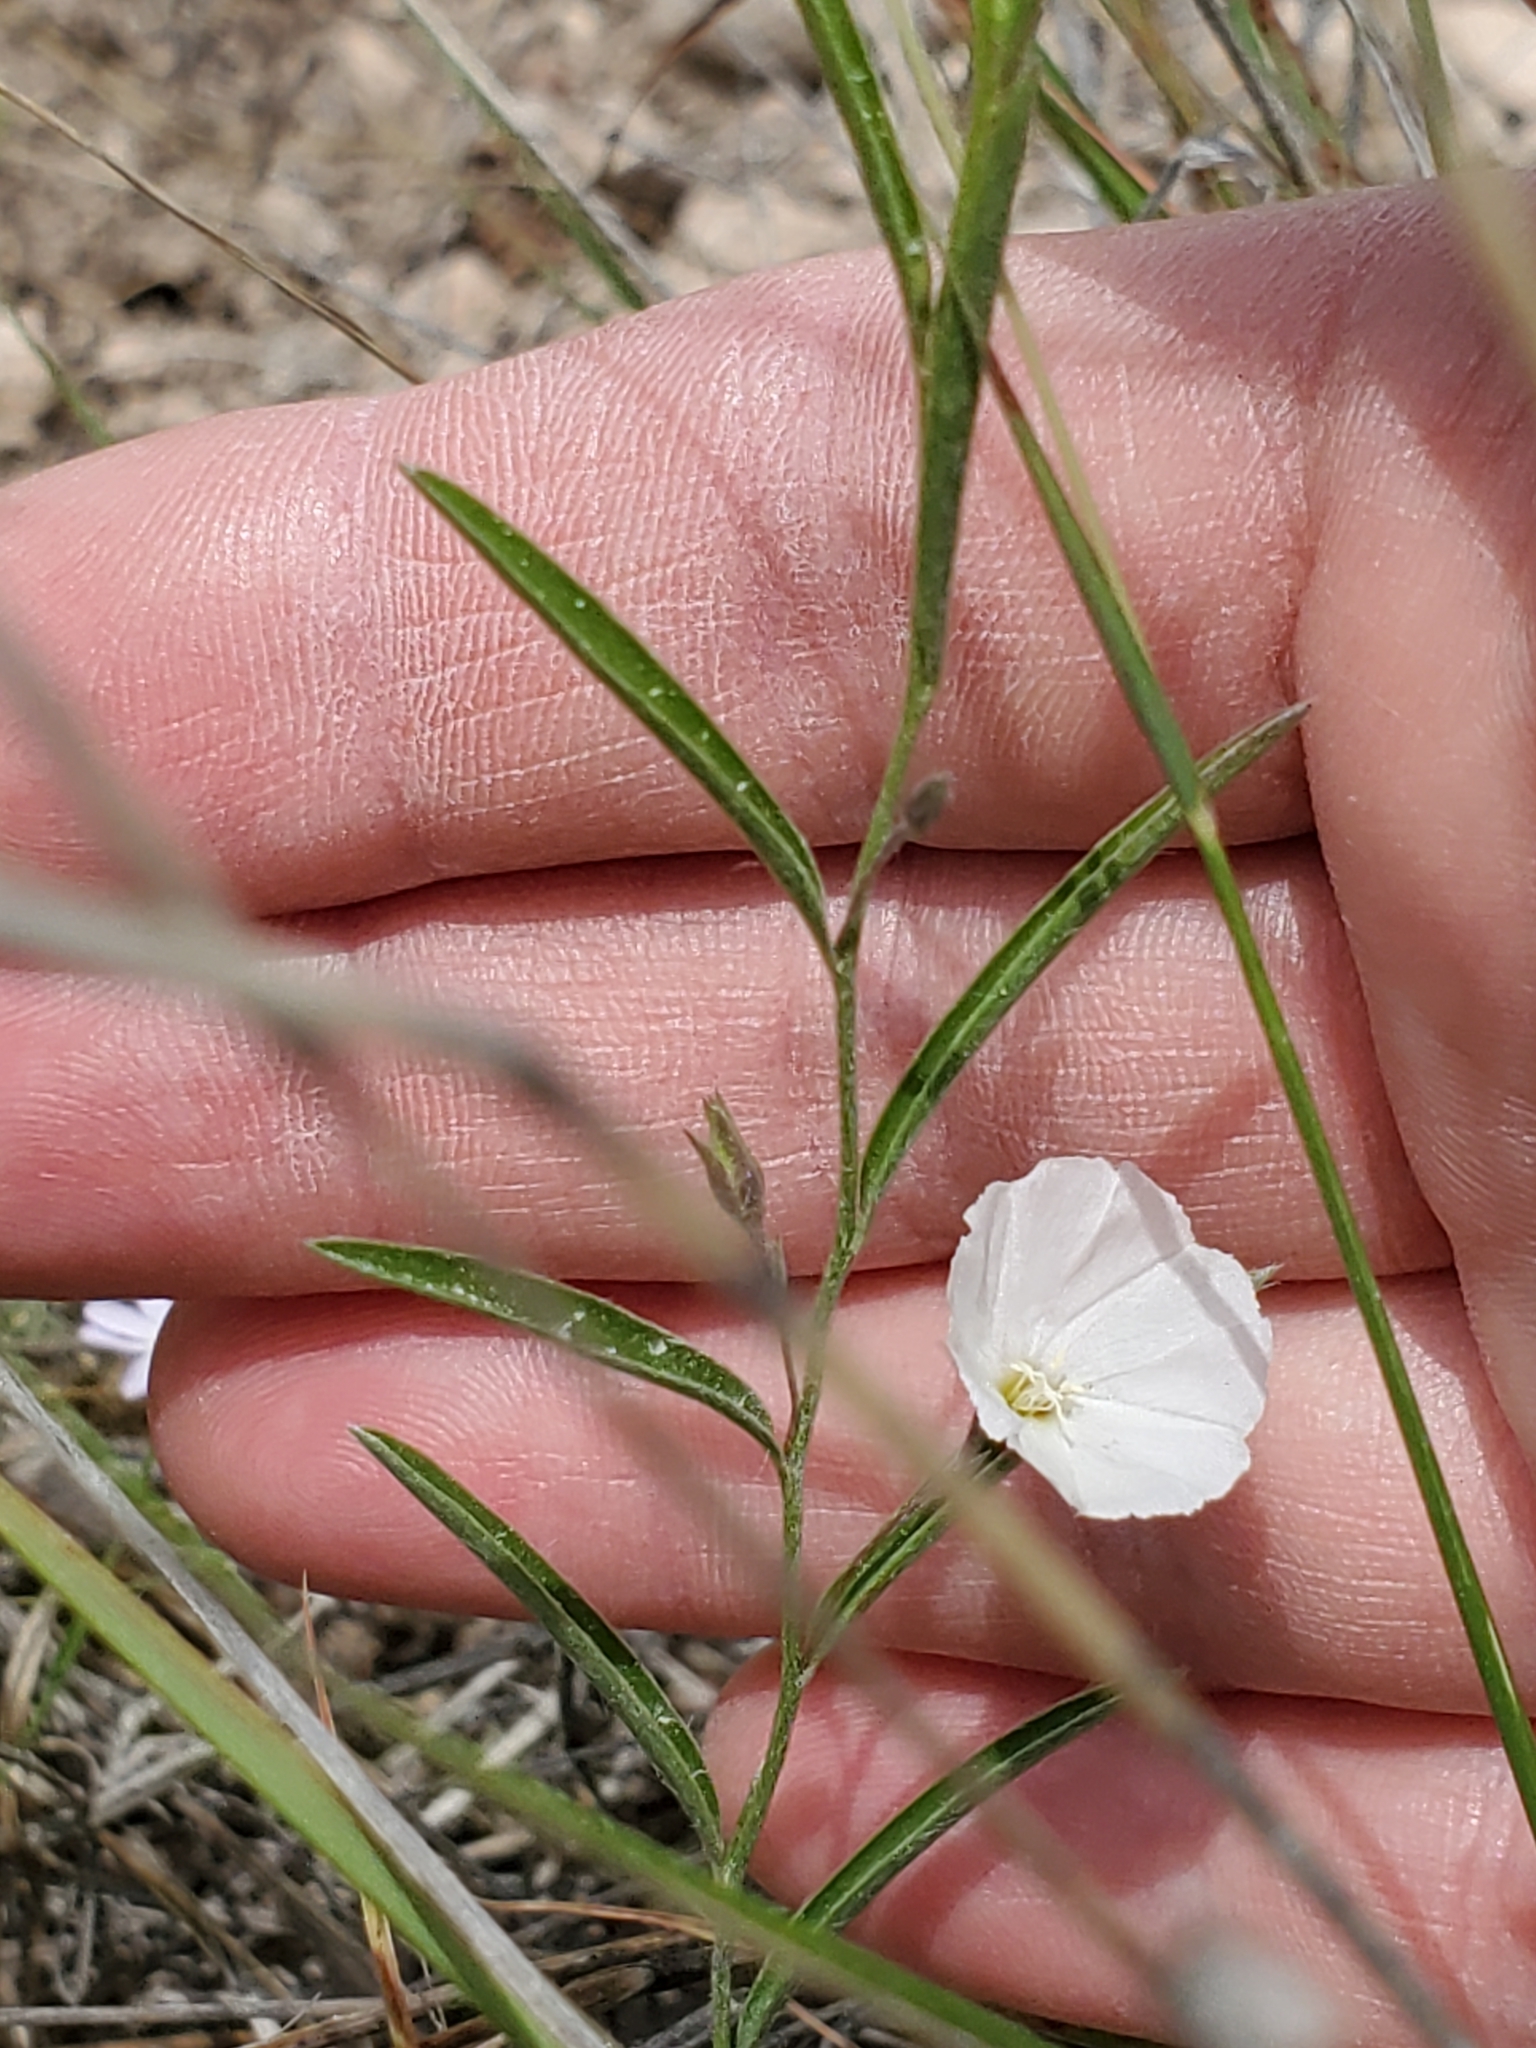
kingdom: Plantae
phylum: Tracheophyta
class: Magnoliopsida
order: Solanales
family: Convolvulaceae
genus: Evolvulus
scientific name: Evolvulus sericeus
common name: Blue dots
